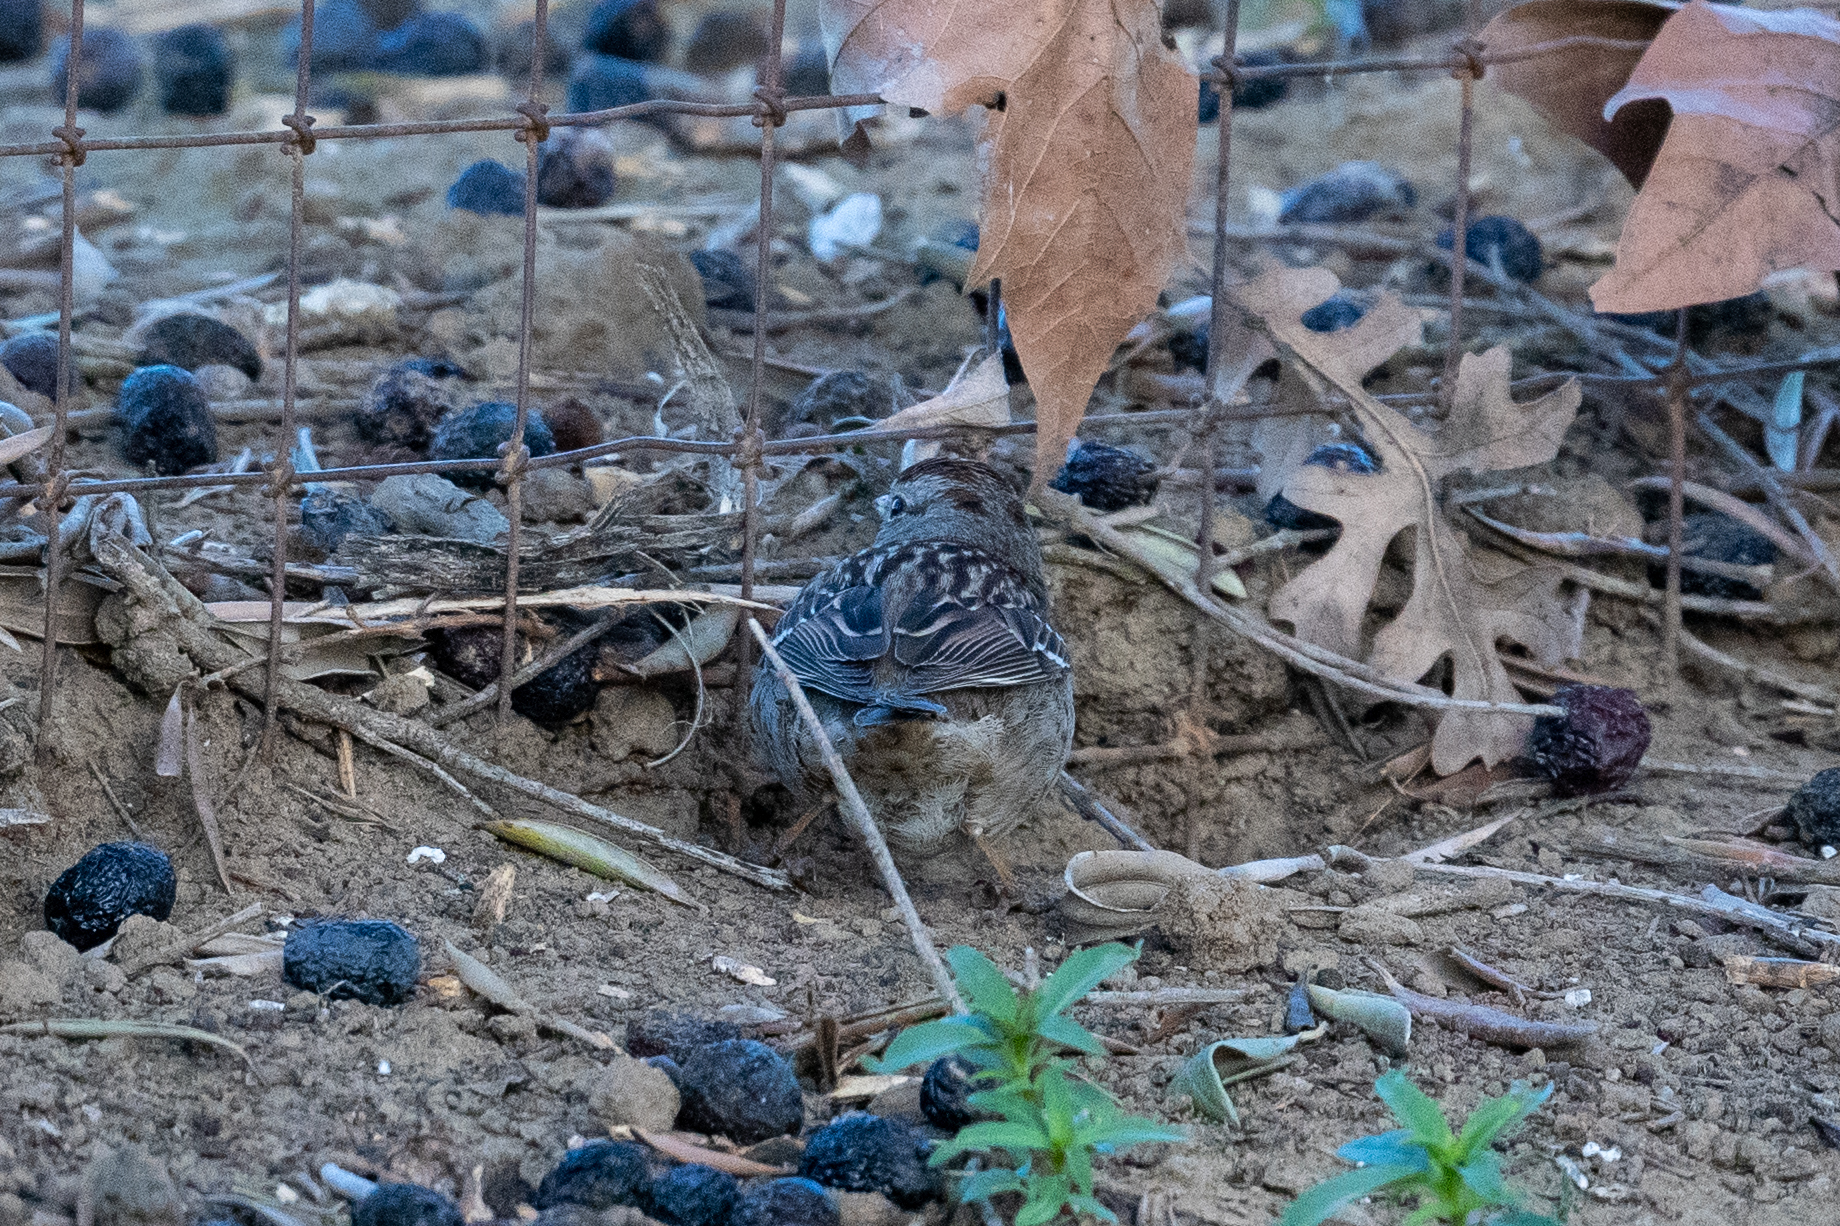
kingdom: Animalia
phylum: Chordata
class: Aves
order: Passeriformes
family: Passerellidae
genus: Zonotrichia
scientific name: Zonotrichia leucophrys
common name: White-crowned sparrow
